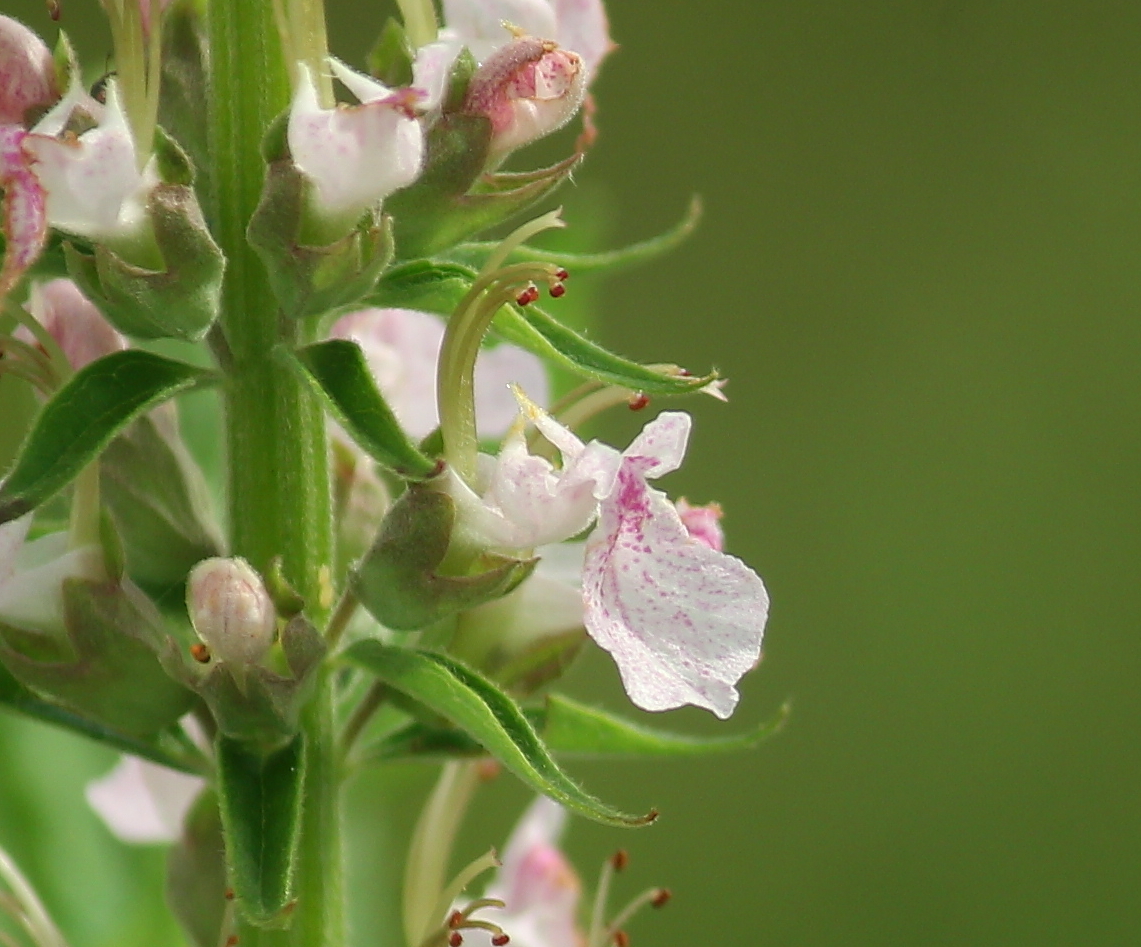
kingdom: Plantae
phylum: Tracheophyta
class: Magnoliopsida
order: Lamiales
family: Lamiaceae
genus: Teucrium
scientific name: Teucrium canadense
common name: American germander
